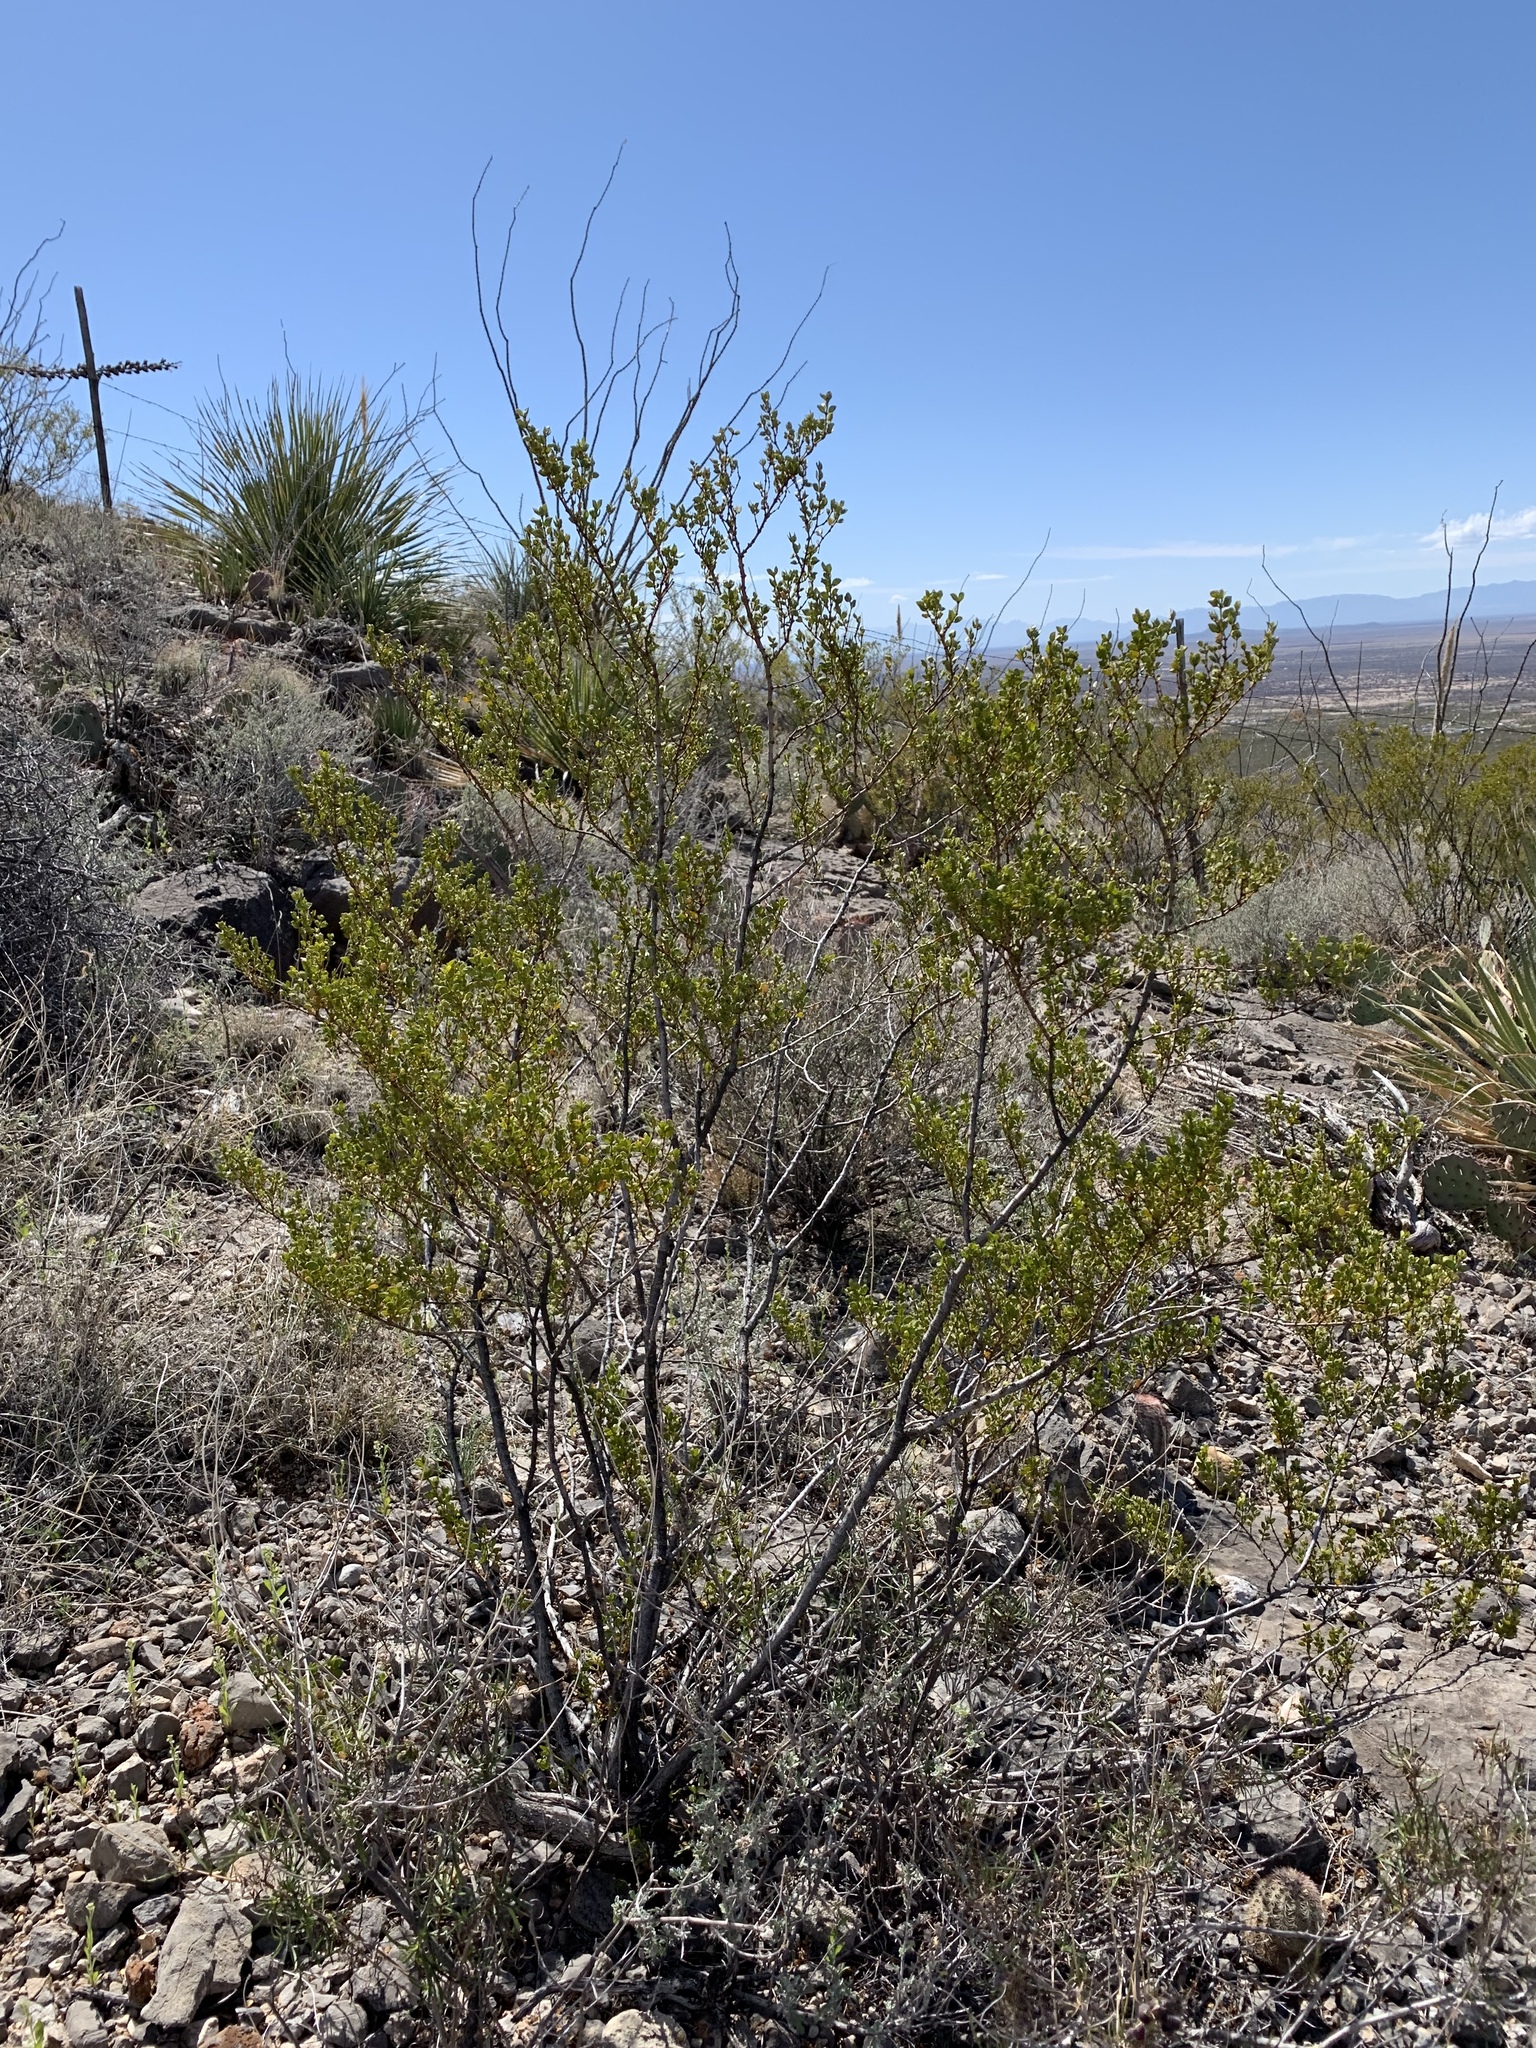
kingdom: Plantae
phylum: Tracheophyta
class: Magnoliopsida
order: Zygophyllales
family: Zygophyllaceae
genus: Larrea
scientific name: Larrea tridentata
